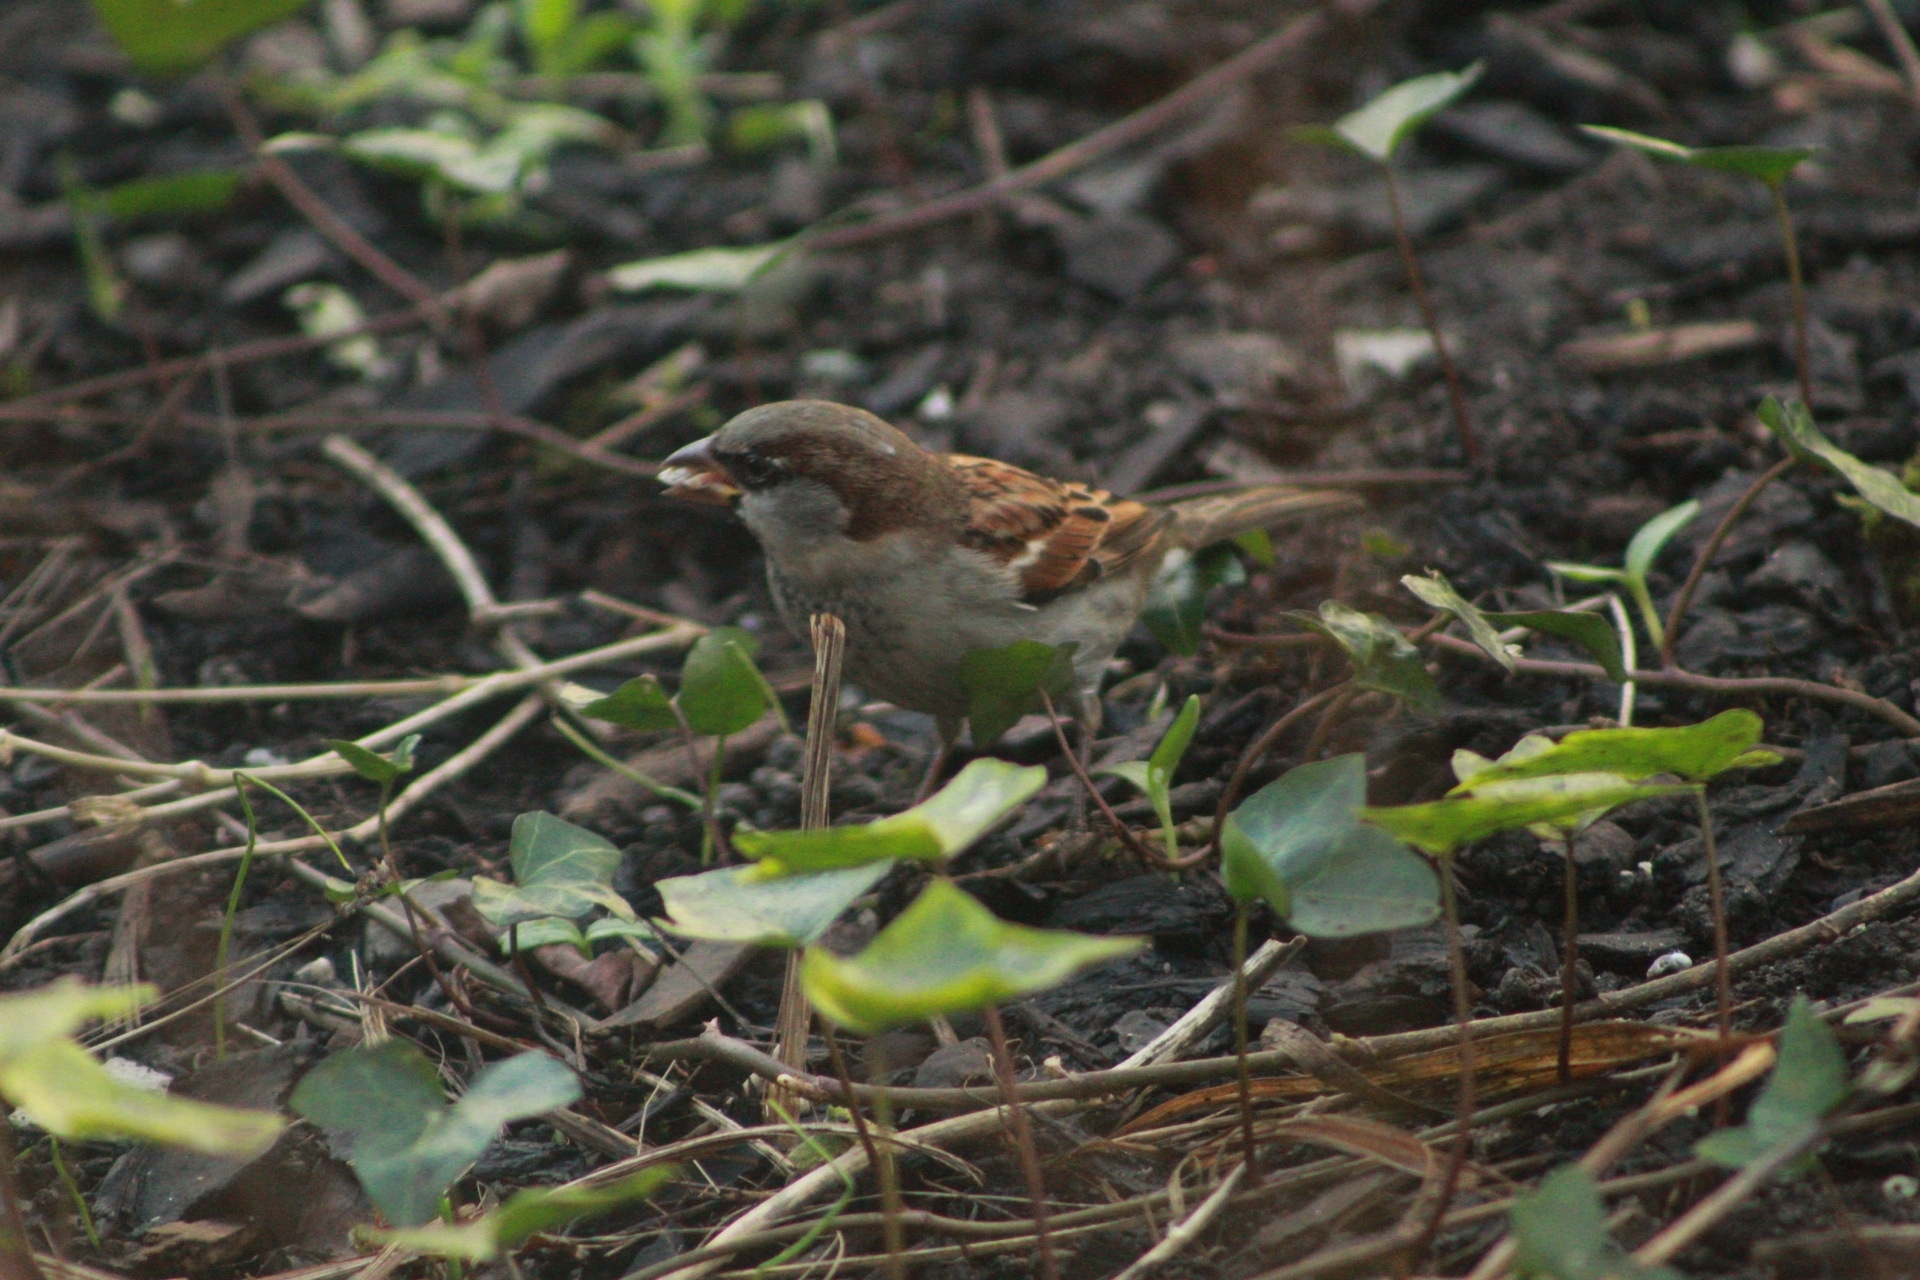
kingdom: Animalia
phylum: Chordata
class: Aves
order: Passeriformes
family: Passeridae
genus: Passer
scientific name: Passer domesticus
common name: House sparrow
